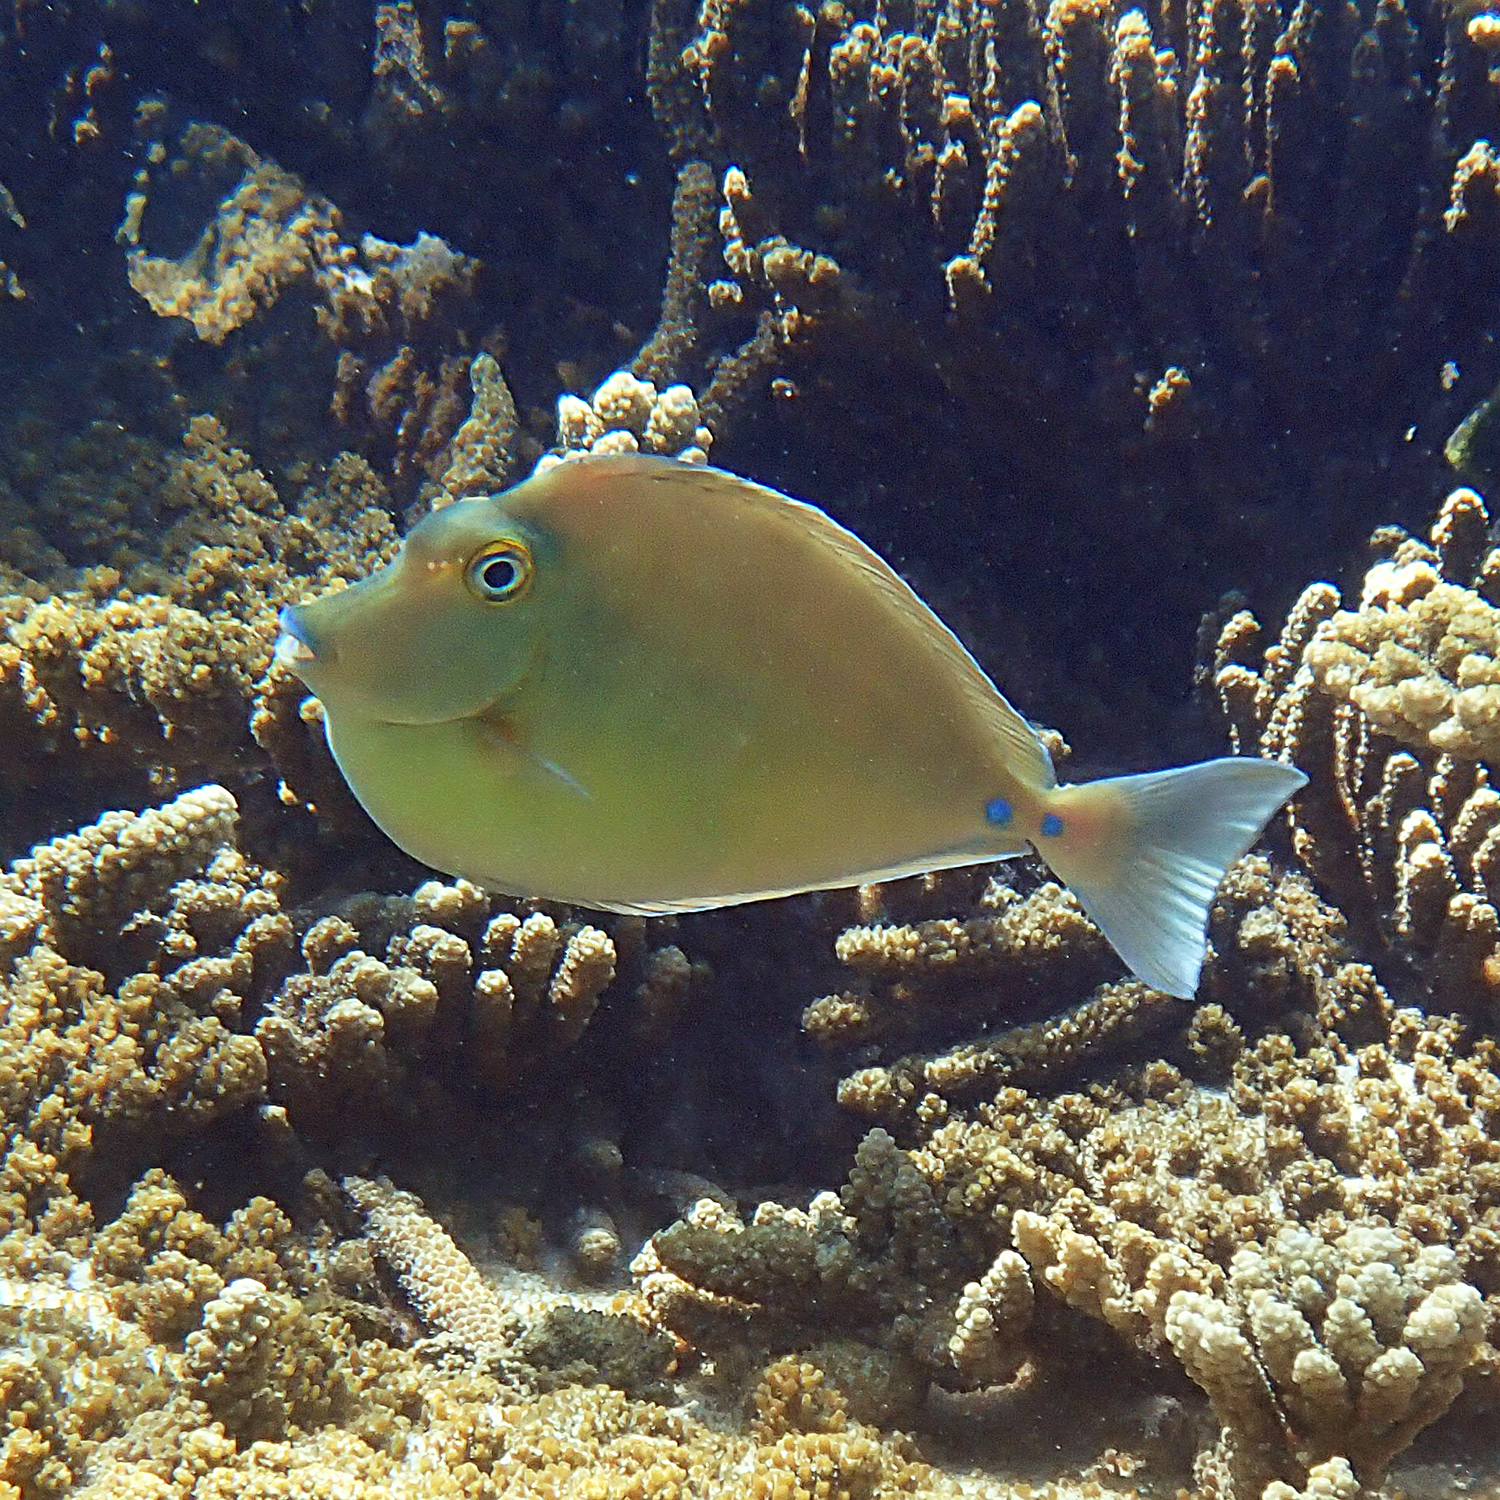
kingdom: Animalia
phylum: Chordata
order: Perciformes
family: Acanthuridae
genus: Naso
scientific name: Naso unicornis
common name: Bluespine unicornfish
